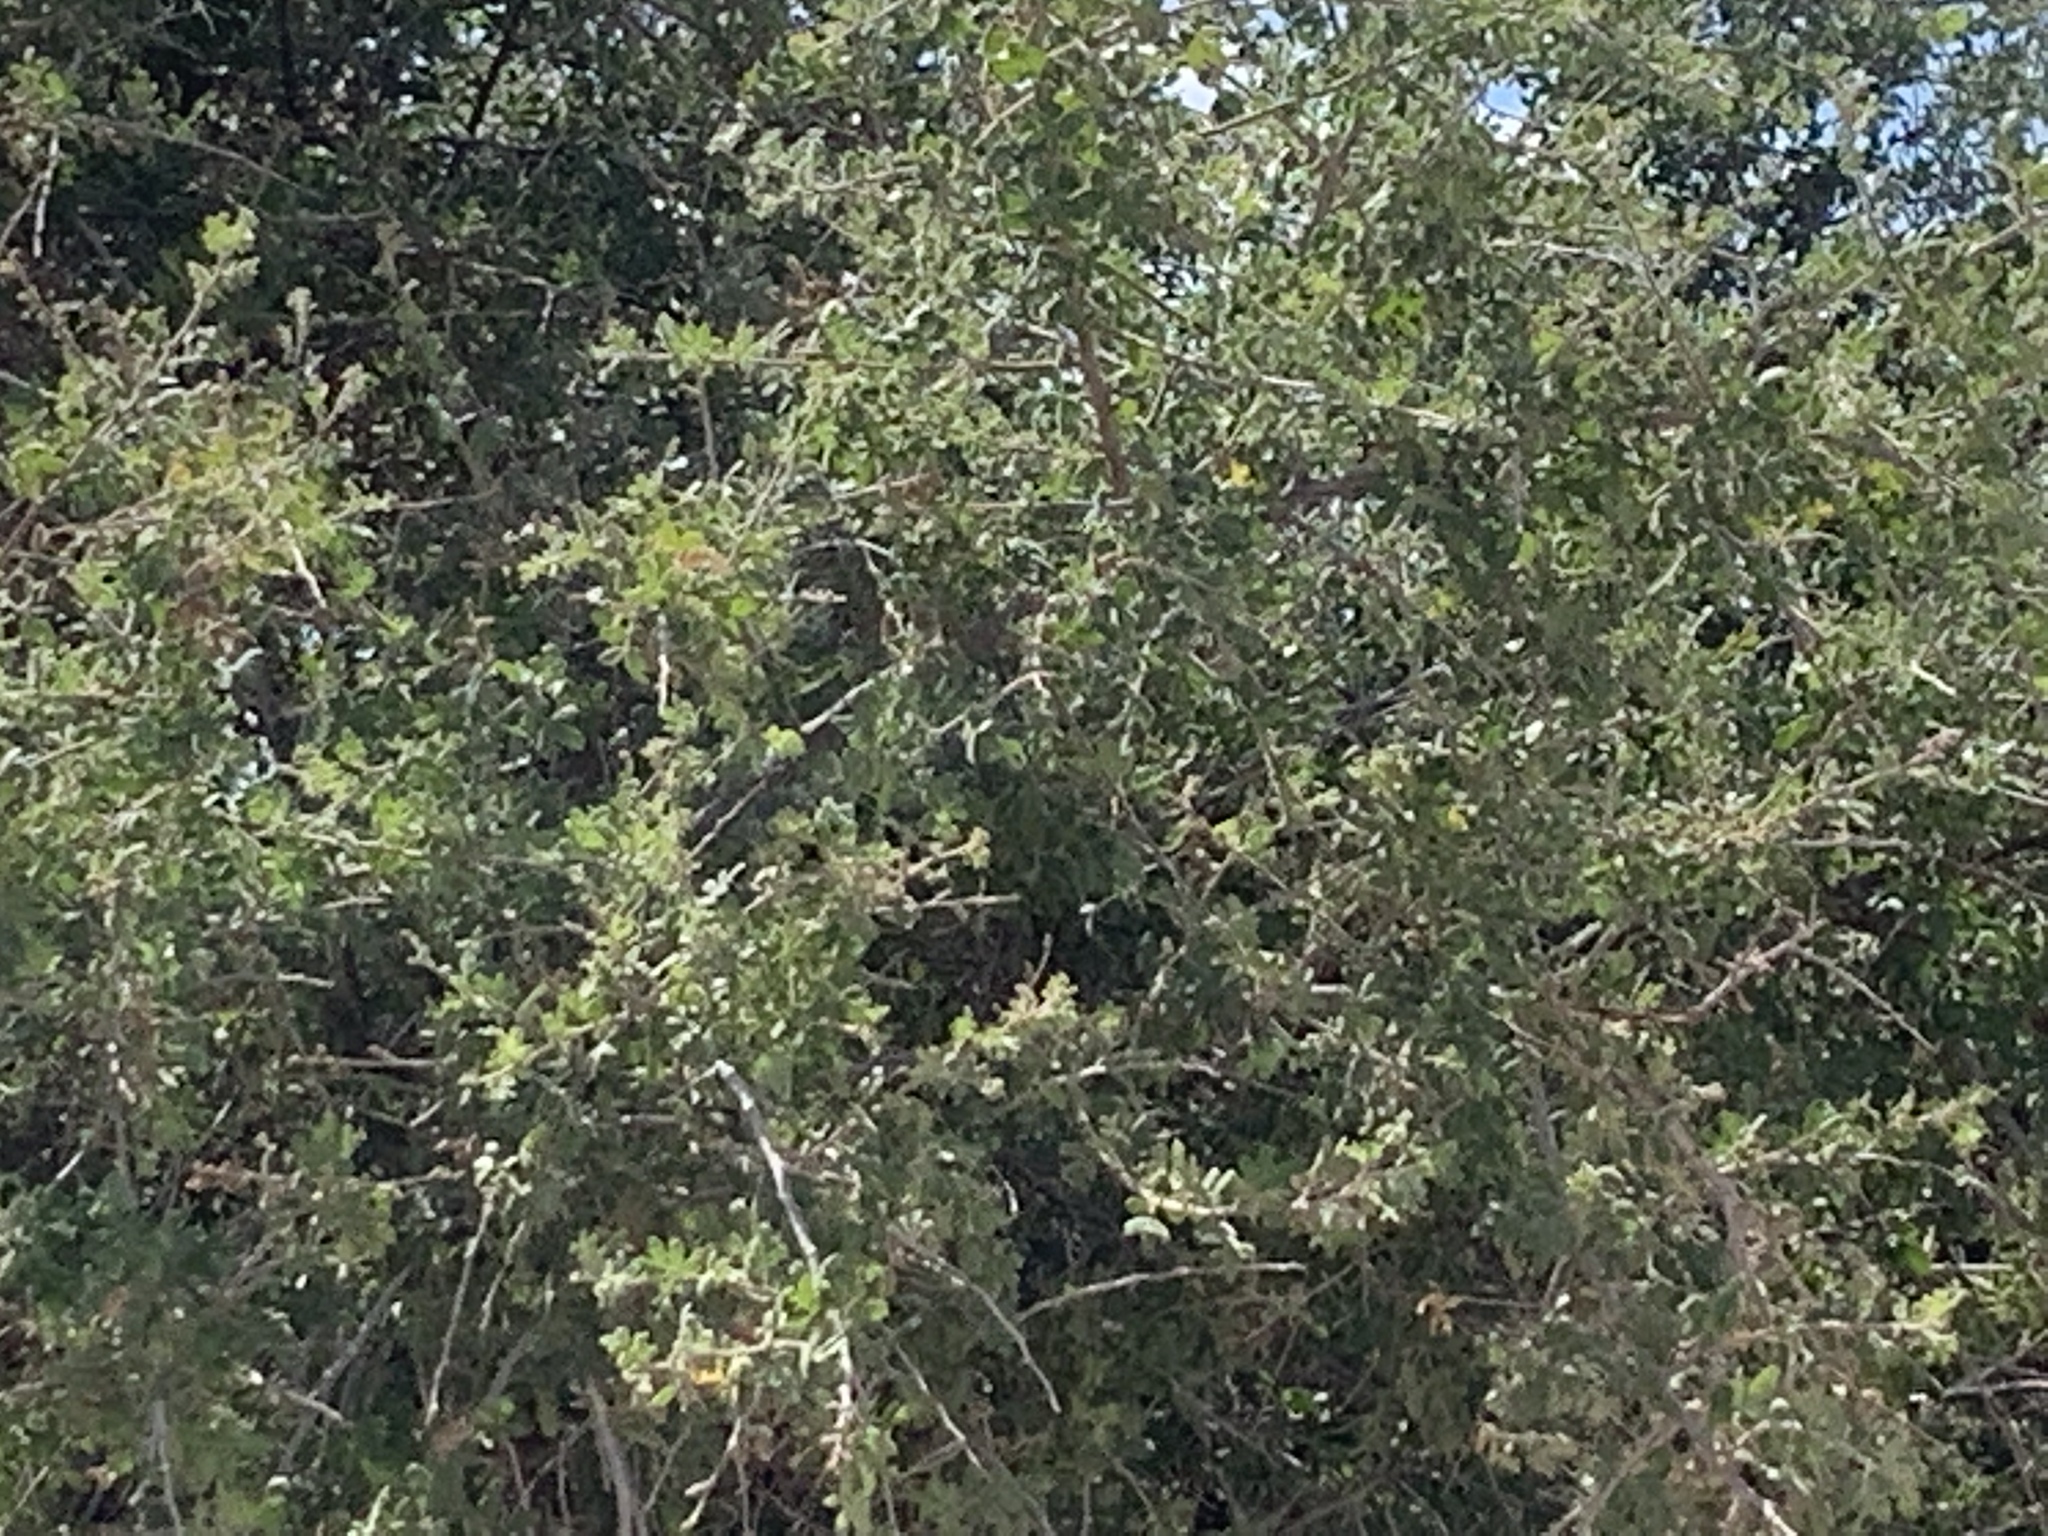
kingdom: Plantae
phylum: Tracheophyta
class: Magnoliopsida
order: Sapindales
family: Anacardiaceae
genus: Rhus
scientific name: Rhus microphylla
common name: Desert sumac
